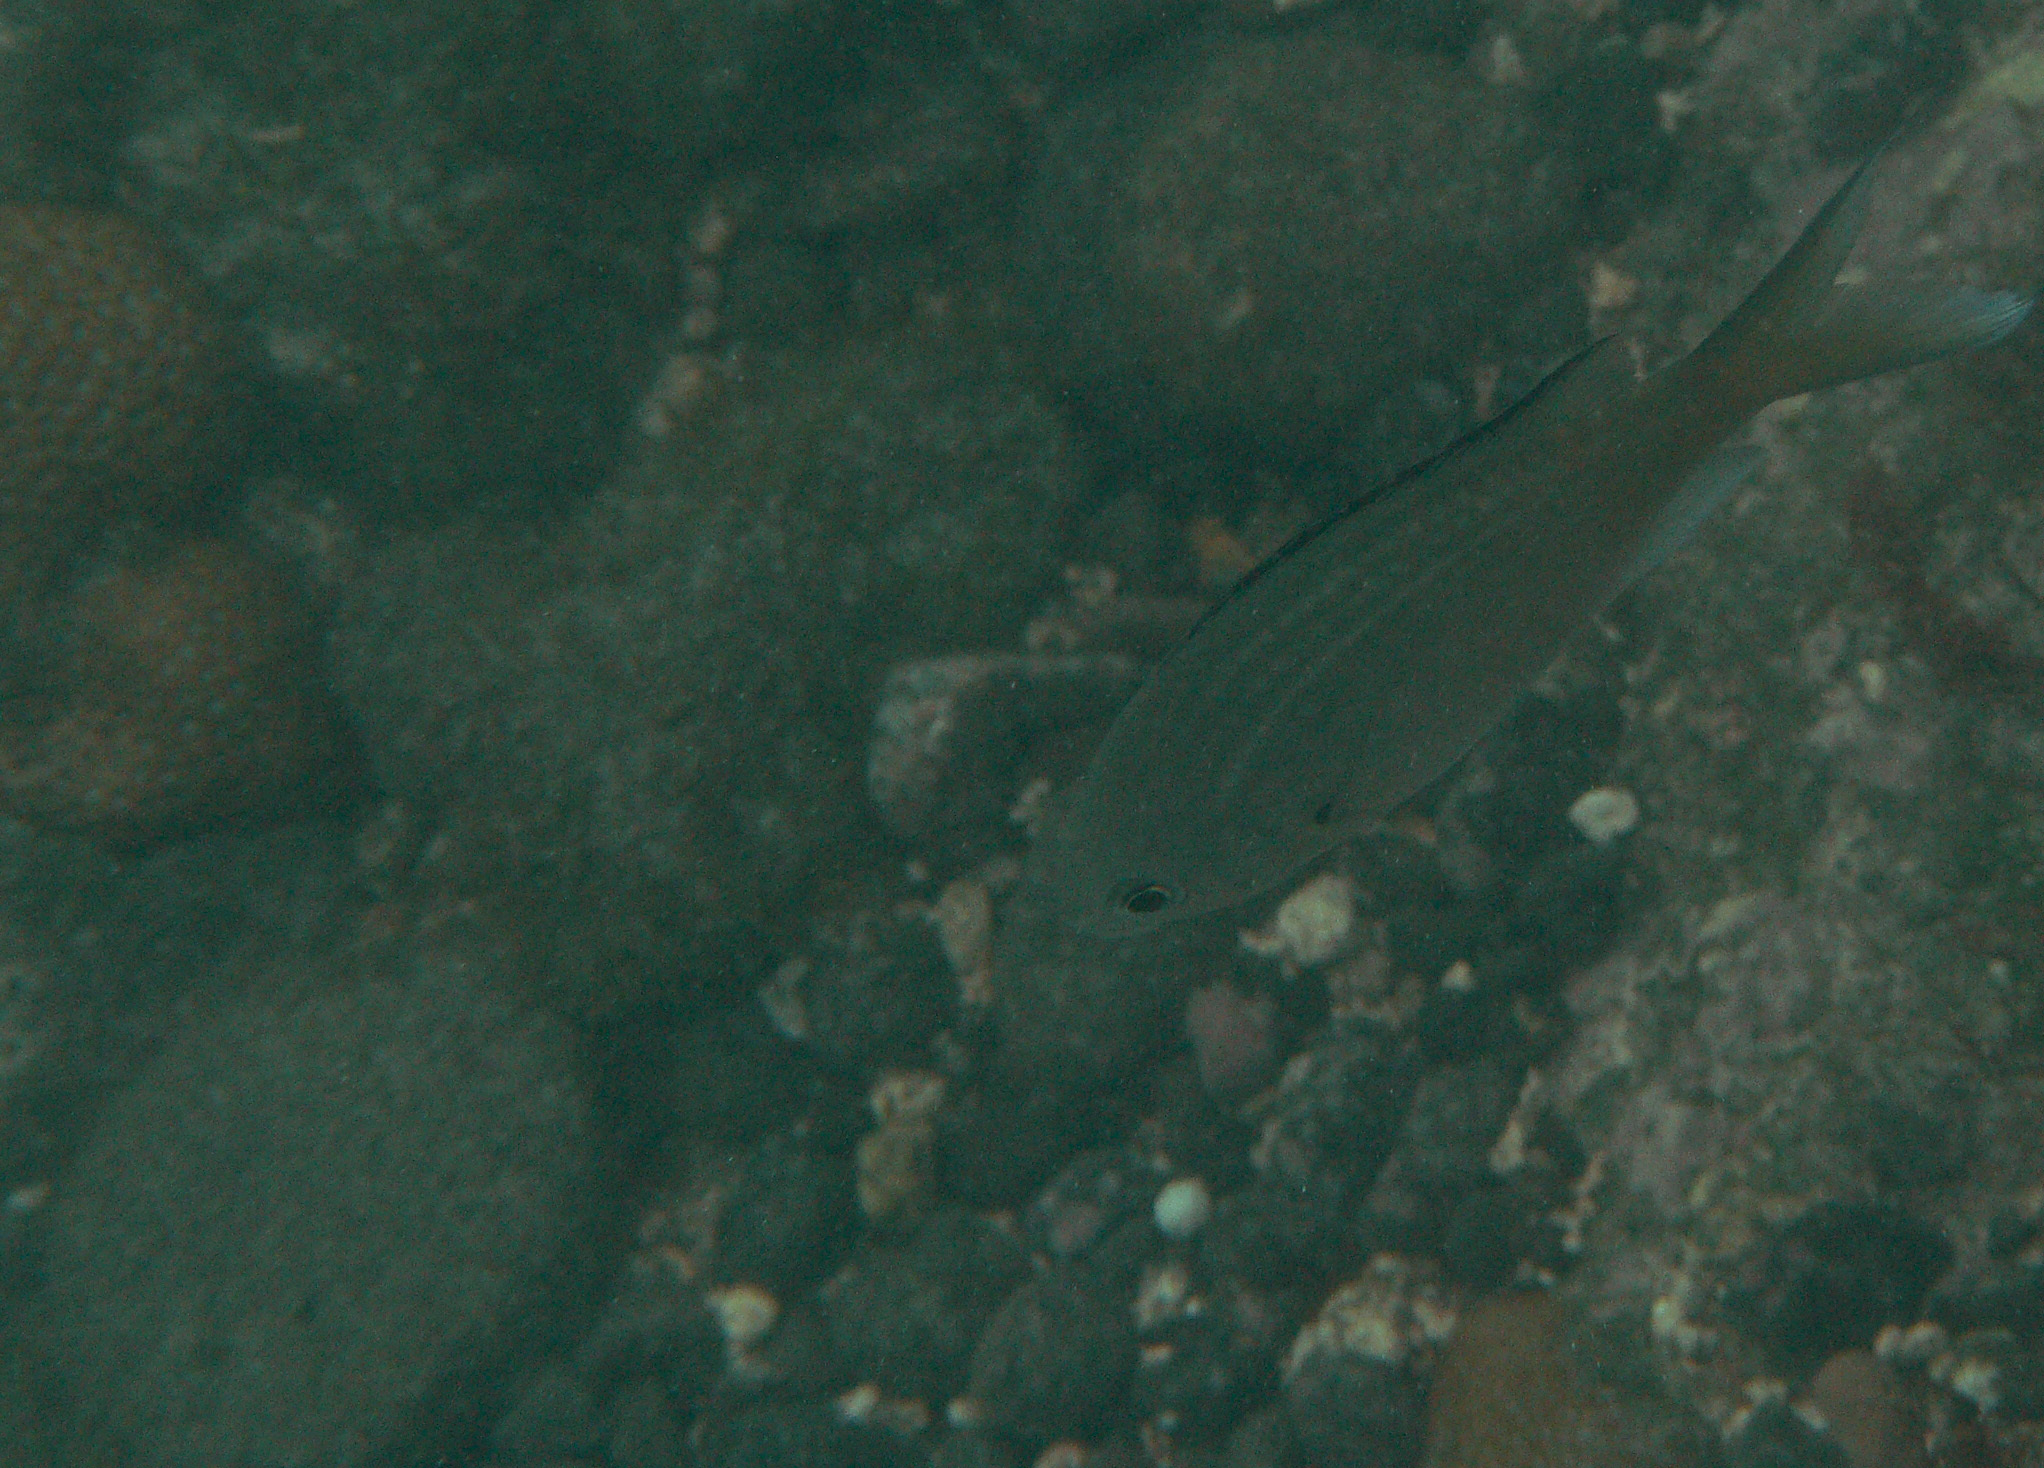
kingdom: Animalia
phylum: Chordata
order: Perciformes
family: Pomacentridae
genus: Chromis
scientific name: Chromis multilineata
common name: Brown chromis
